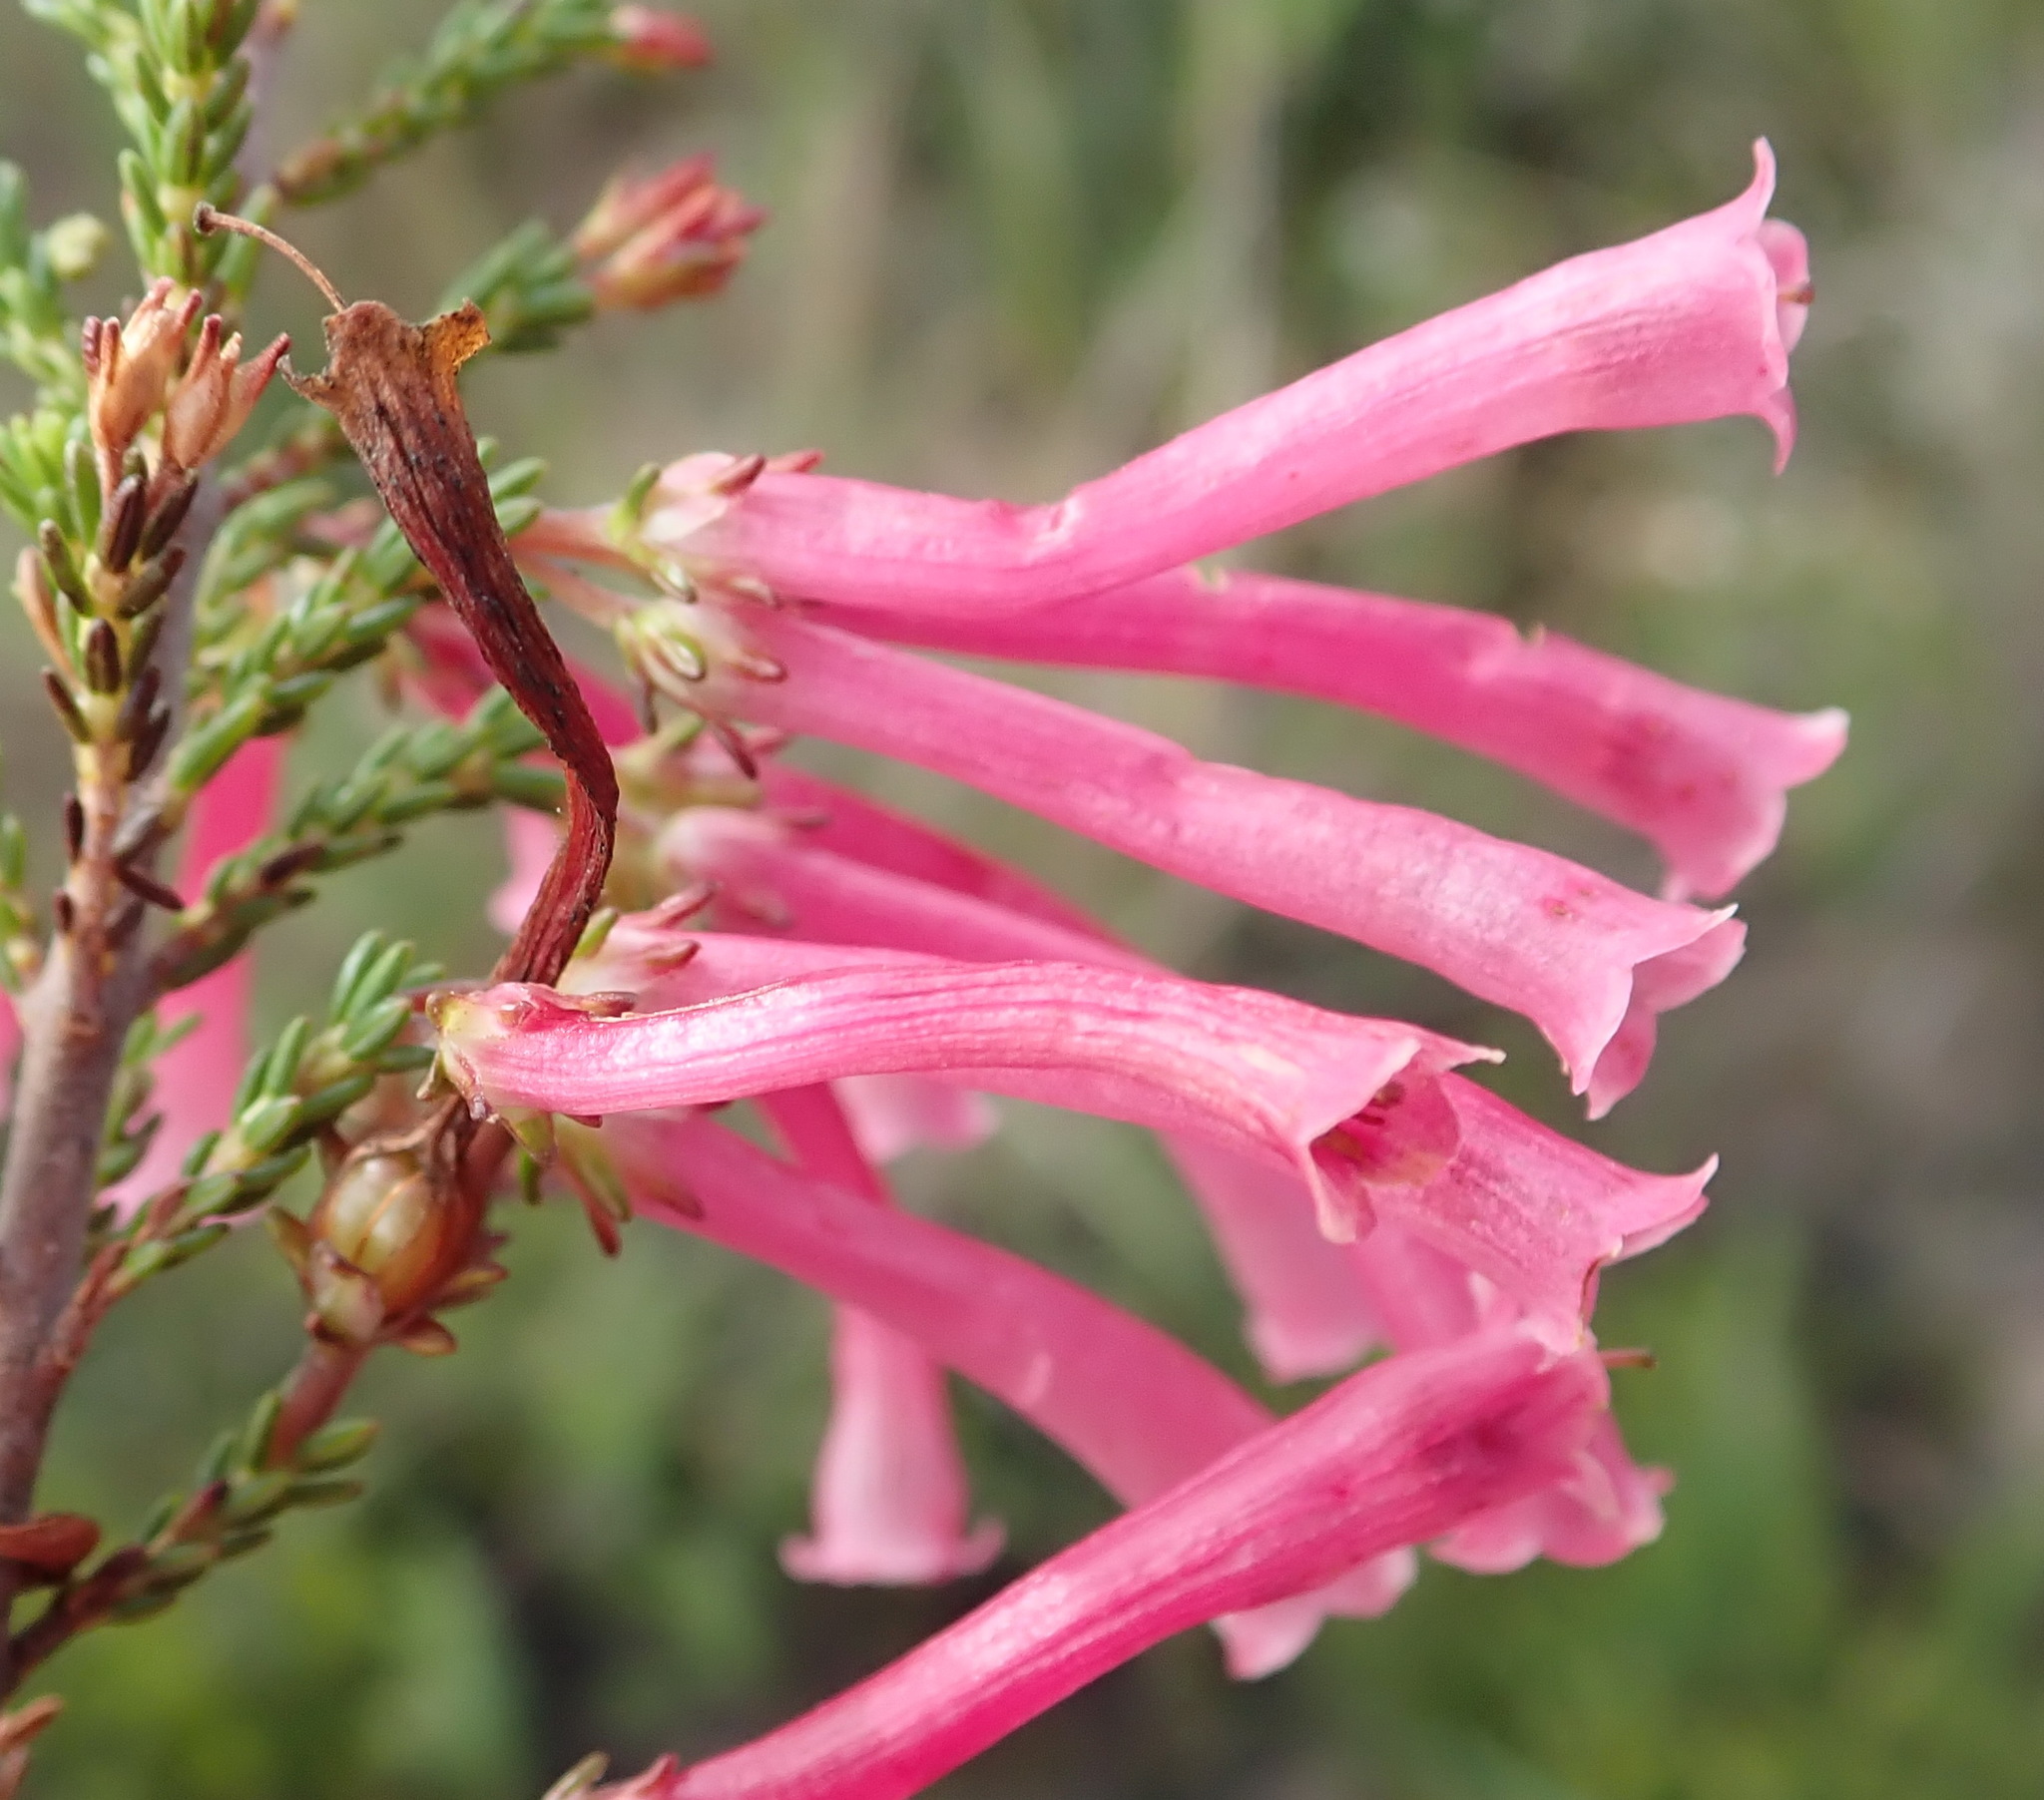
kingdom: Plantae
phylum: Tracheophyta
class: Magnoliopsida
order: Ericales
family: Ericaceae
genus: Erica
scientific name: Erica discolor
